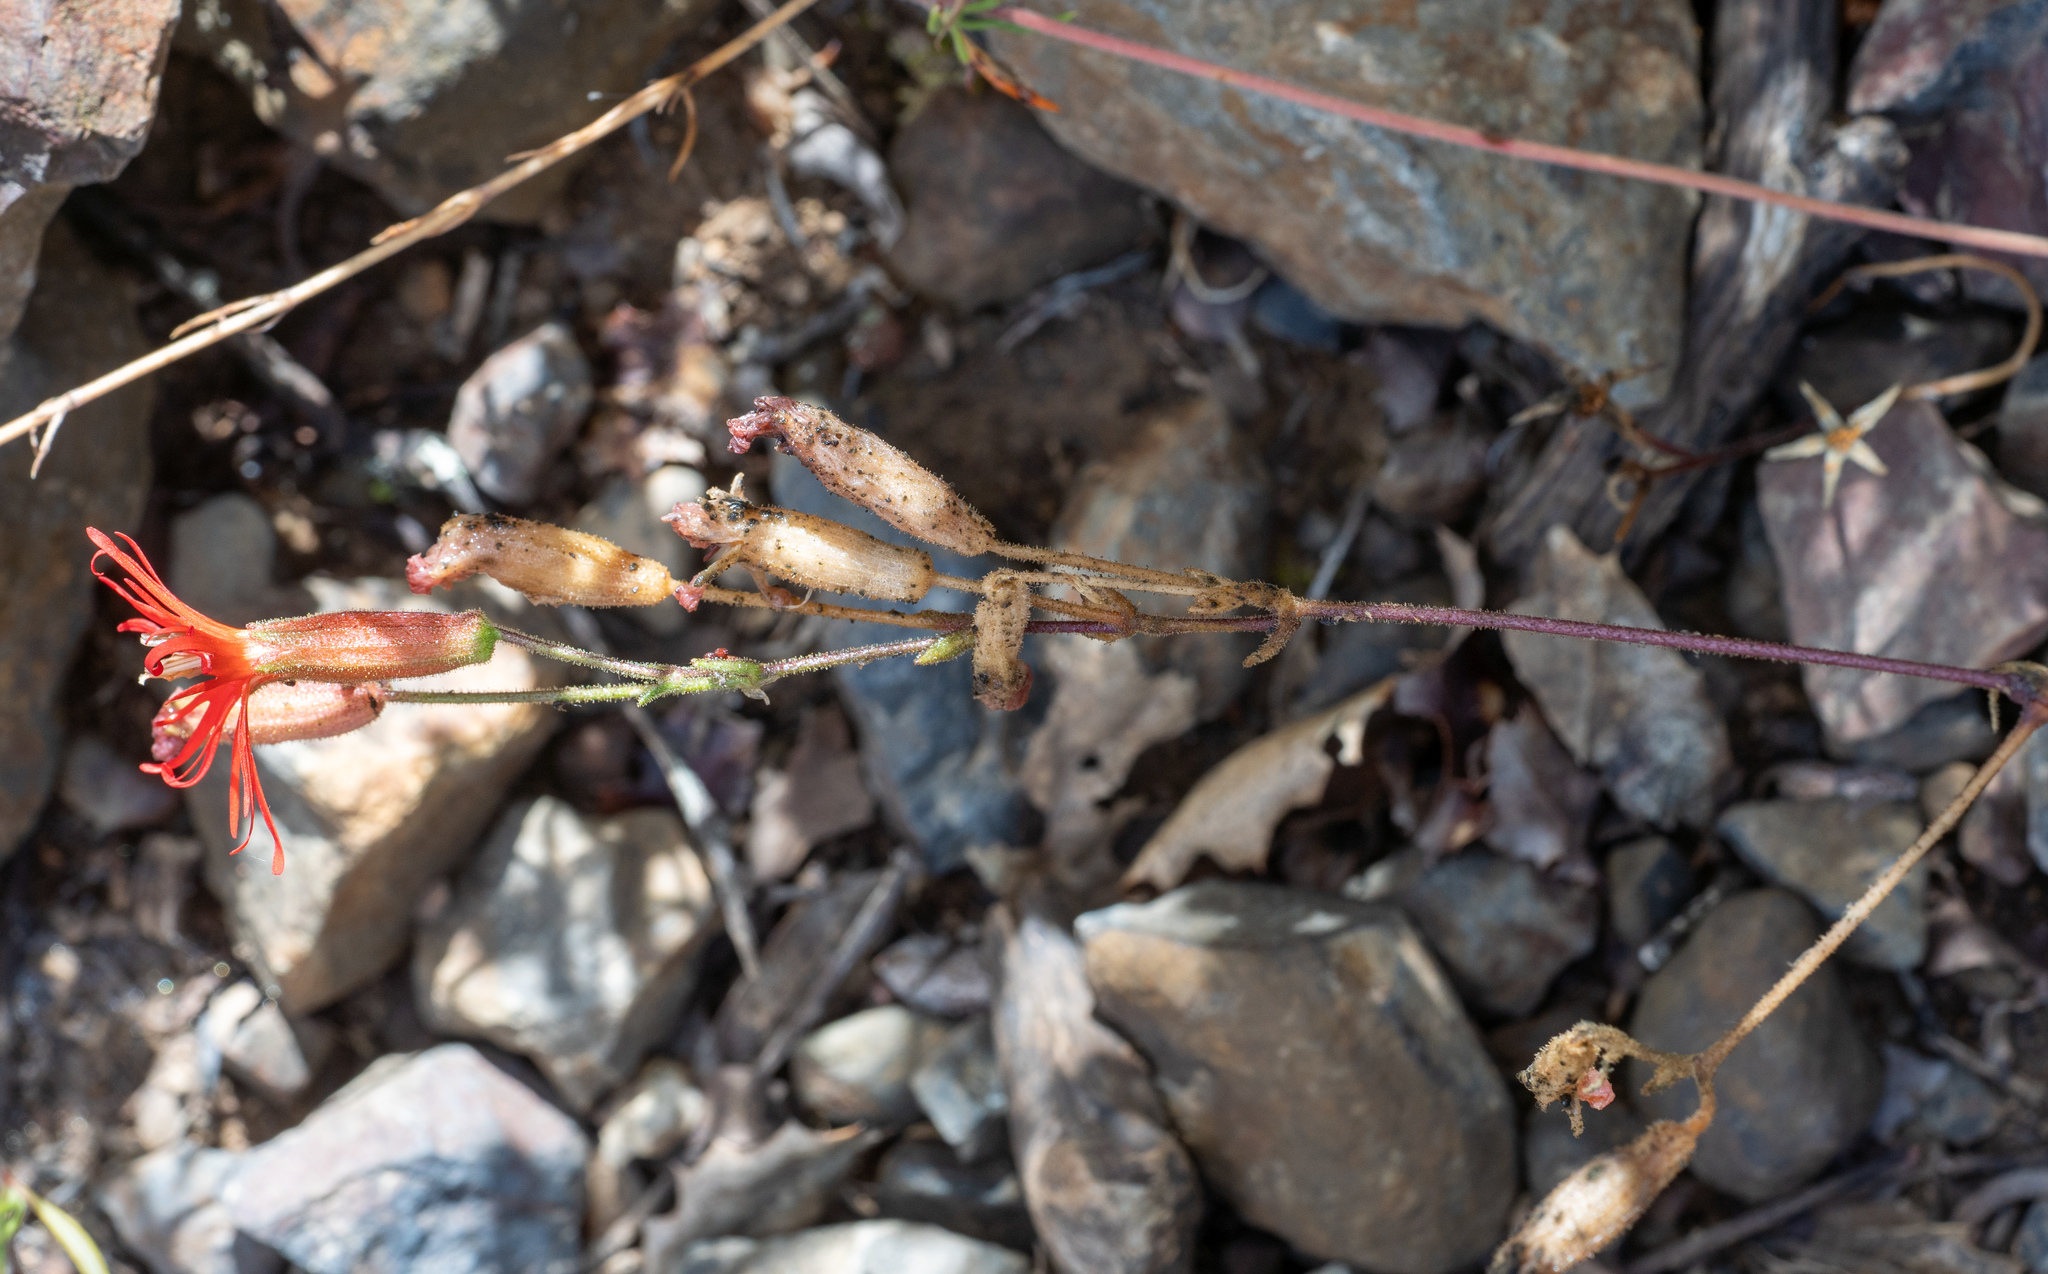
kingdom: Plantae
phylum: Tracheophyta
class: Magnoliopsida
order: Caryophyllales
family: Caryophyllaceae
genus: Silene
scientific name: Silene laciniata
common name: Indian-pink
